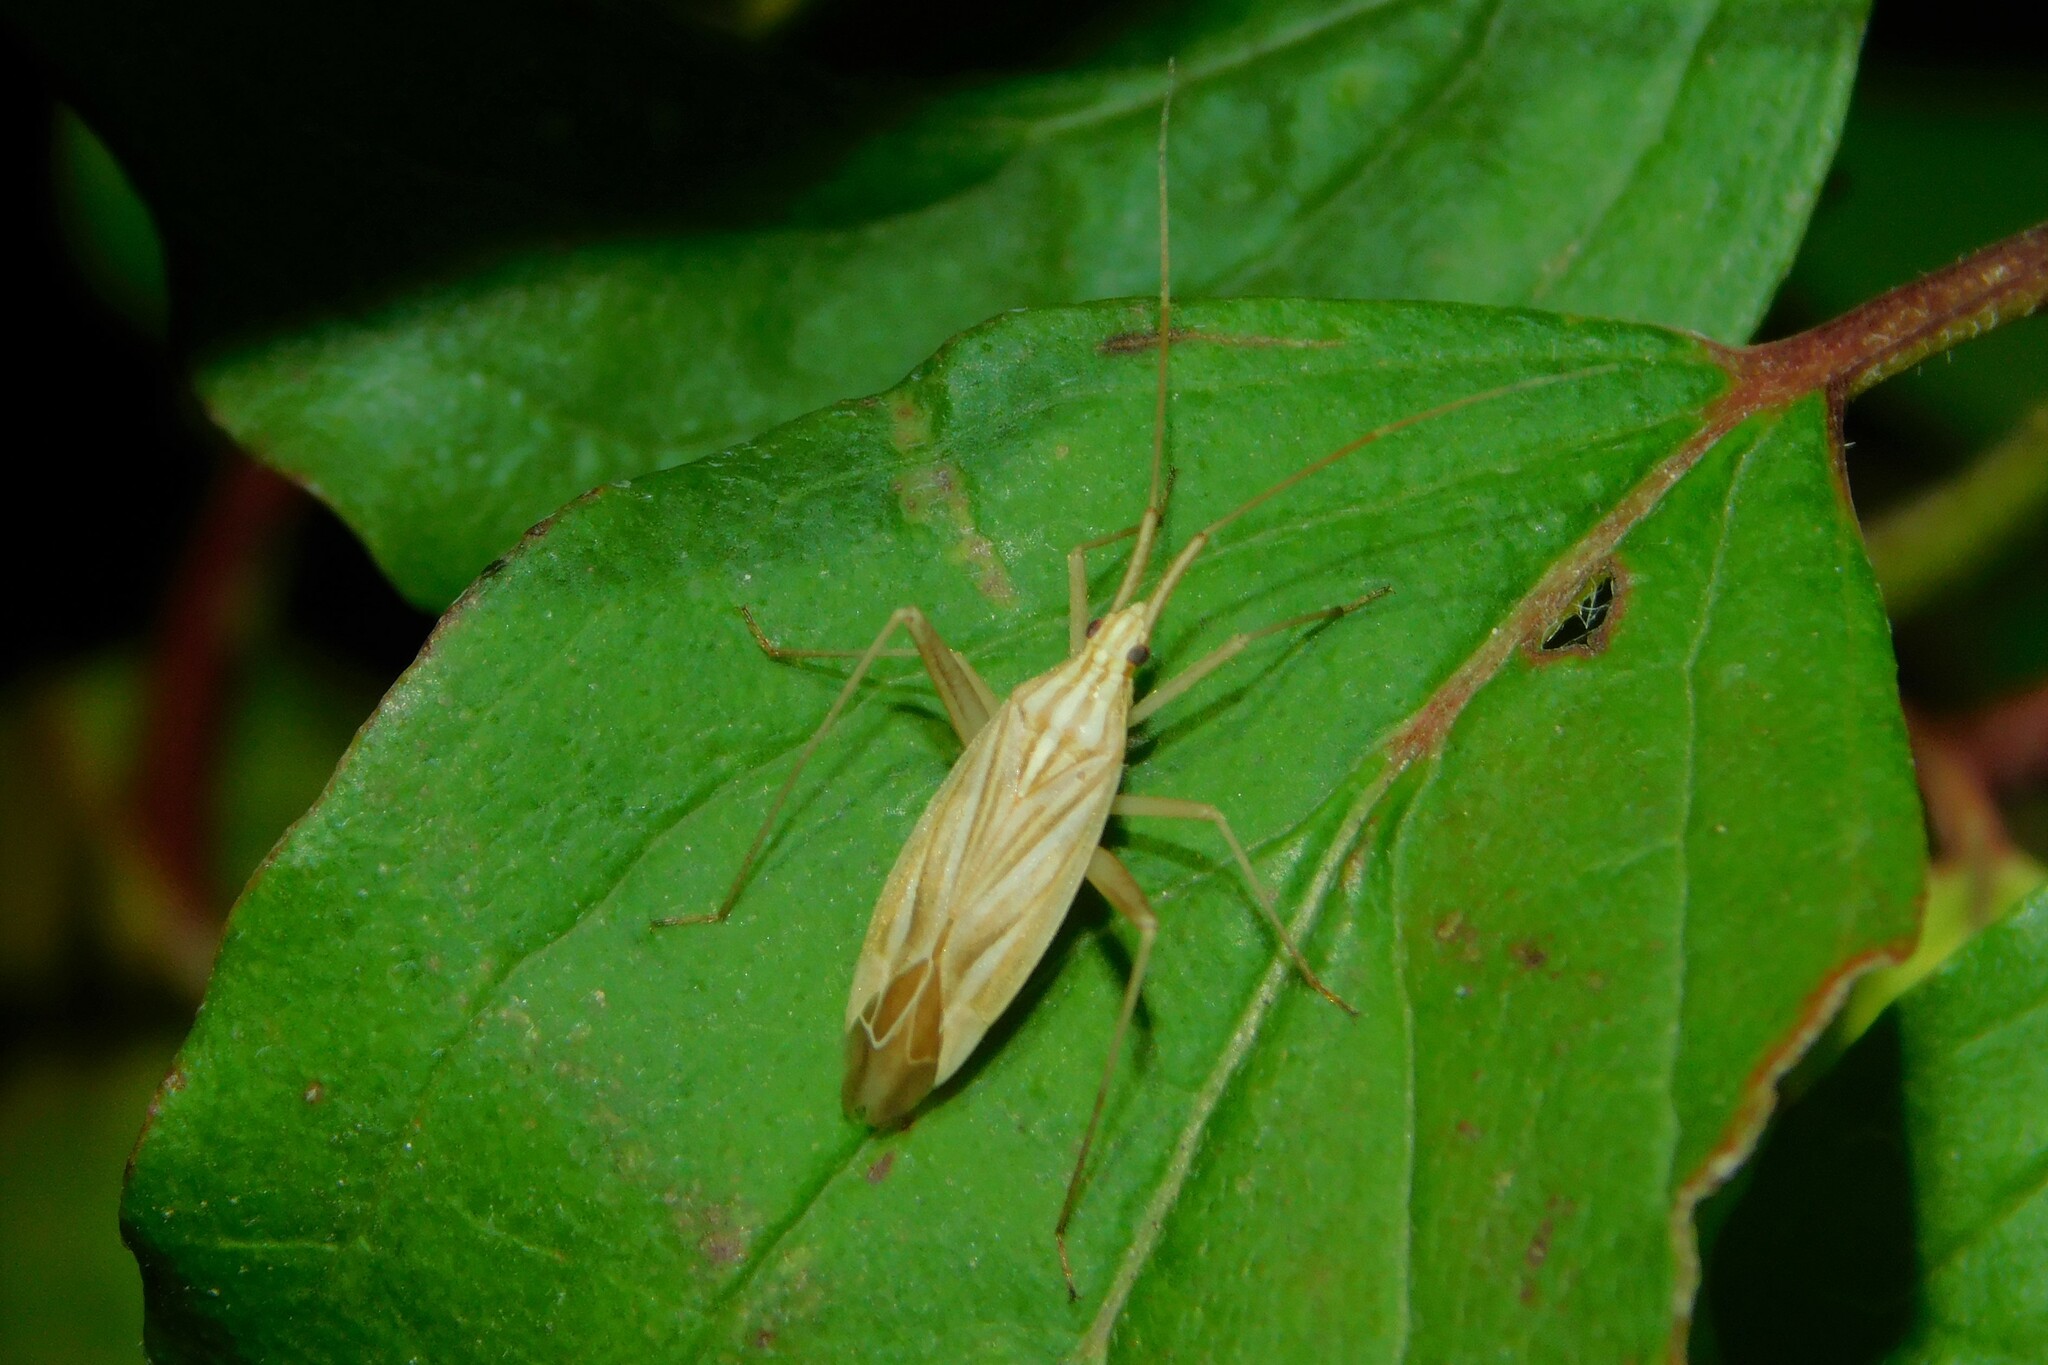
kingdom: Animalia
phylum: Arthropoda
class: Insecta
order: Hemiptera
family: Miridae
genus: Miridius
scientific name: Miridius quadrivirgatus
